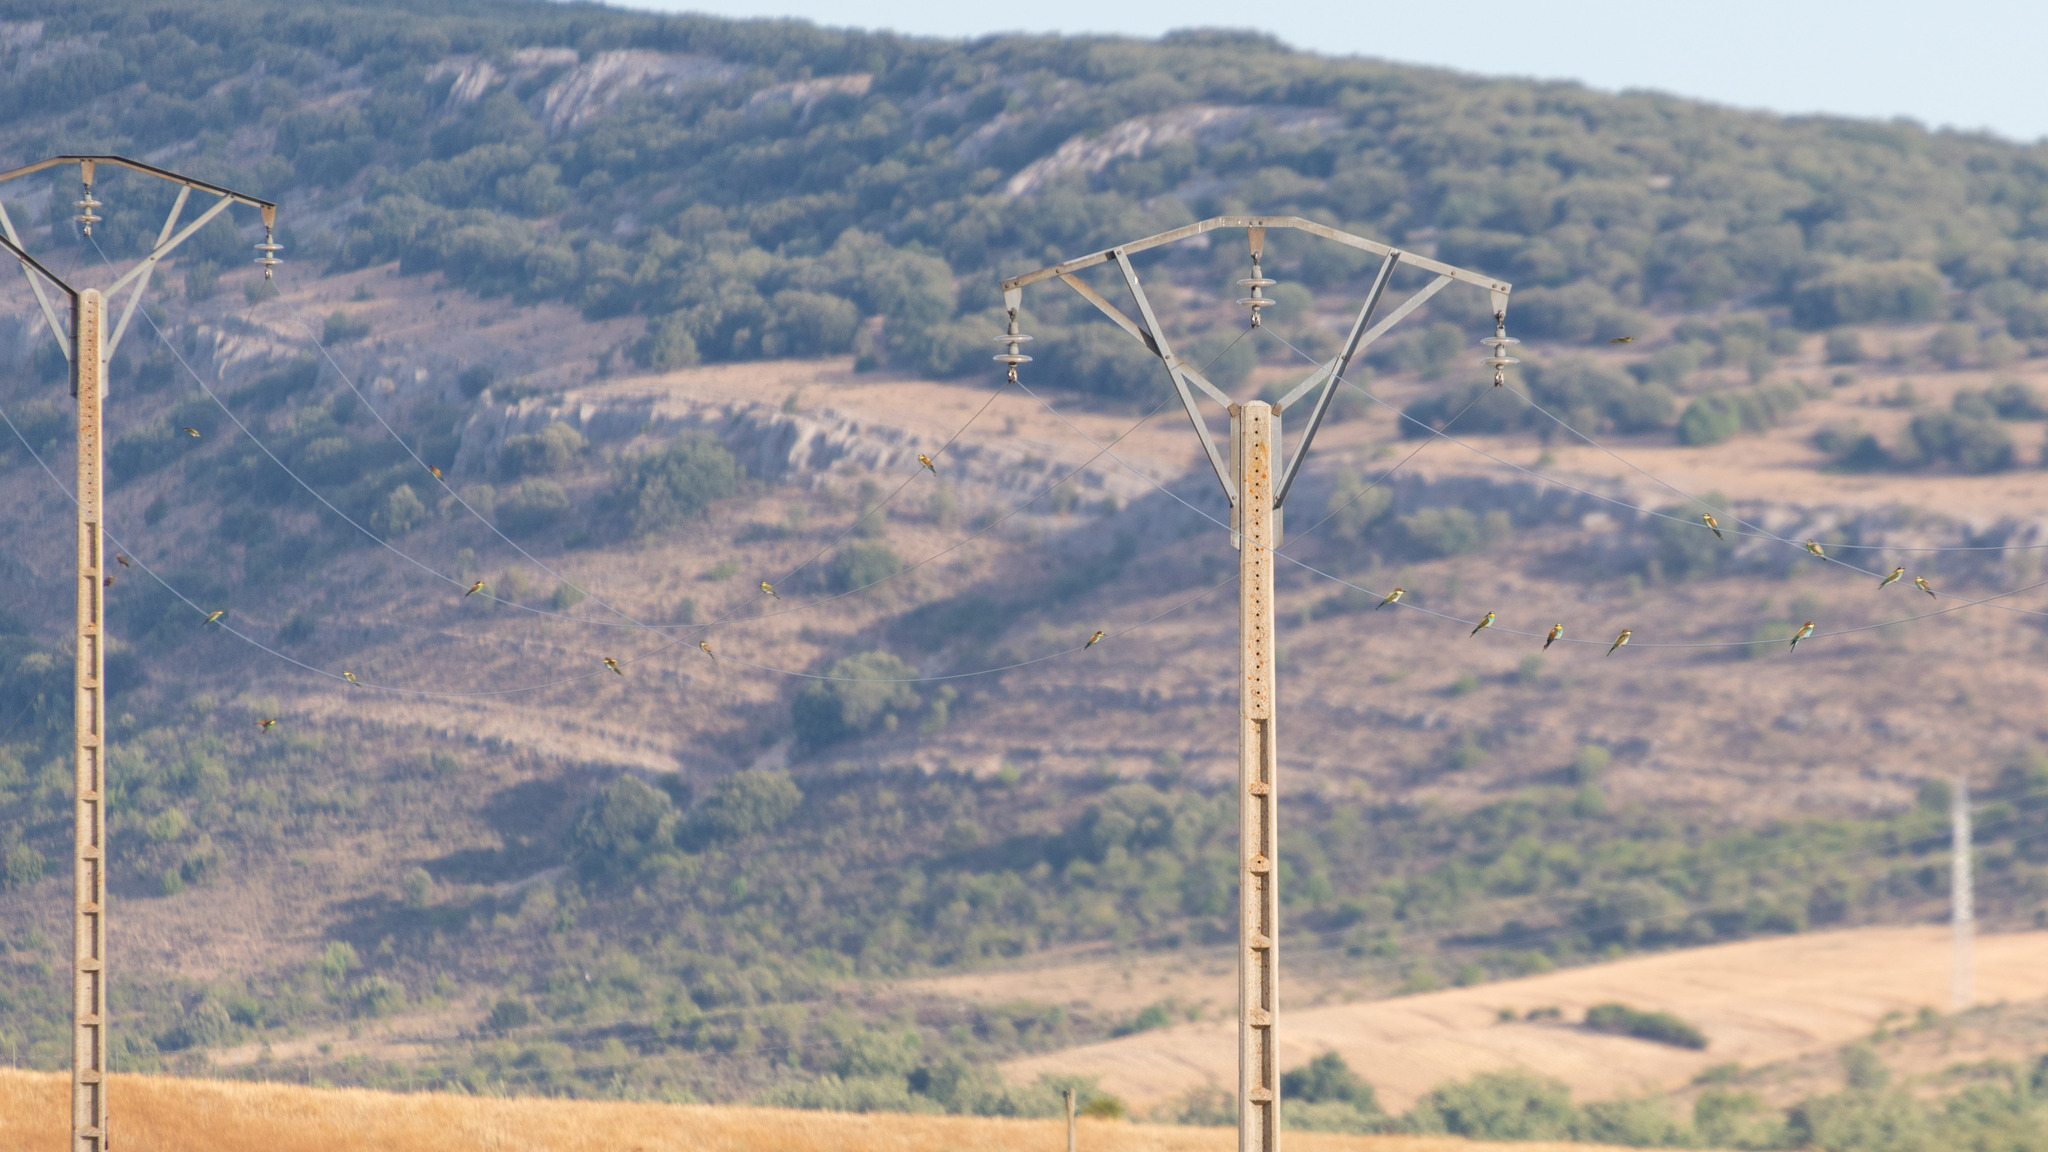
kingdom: Animalia
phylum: Chordata
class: Aves
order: Coraciiformes
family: Meropidae
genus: Merops
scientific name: Merops apiaster
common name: European bee-eater
